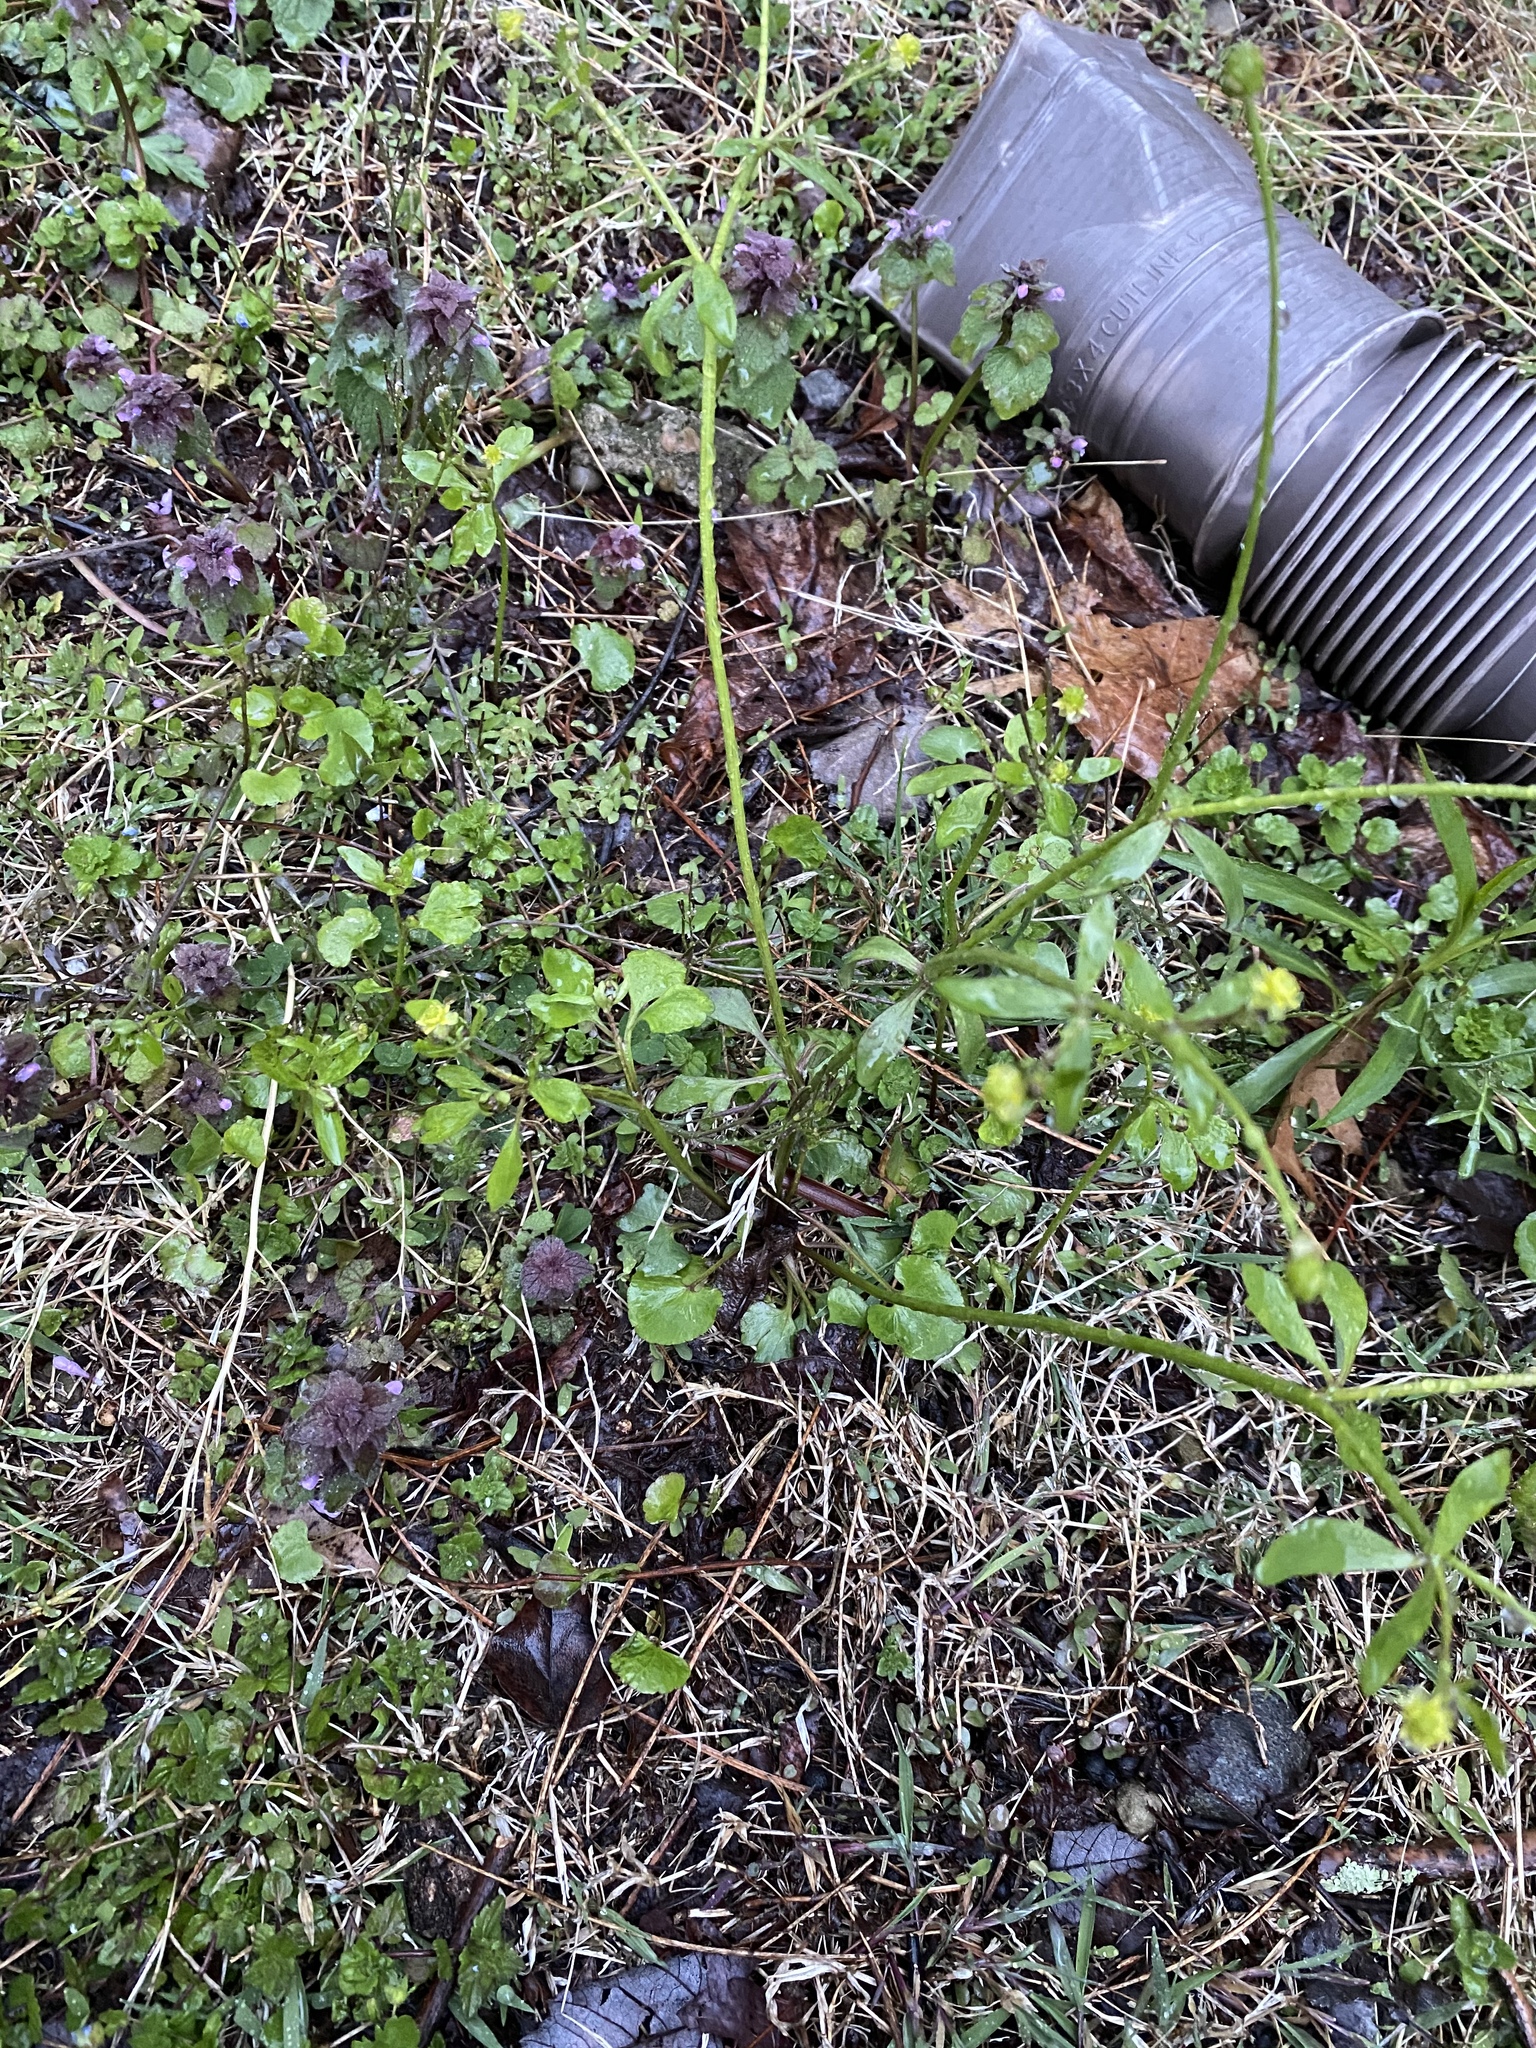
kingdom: Plantae
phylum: Tracheophyta
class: Magnoliopsida
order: Ranunculales
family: Ranunculaceae
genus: Ranunculus
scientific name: Ranunculus abortivus
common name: Early wood buttercup
